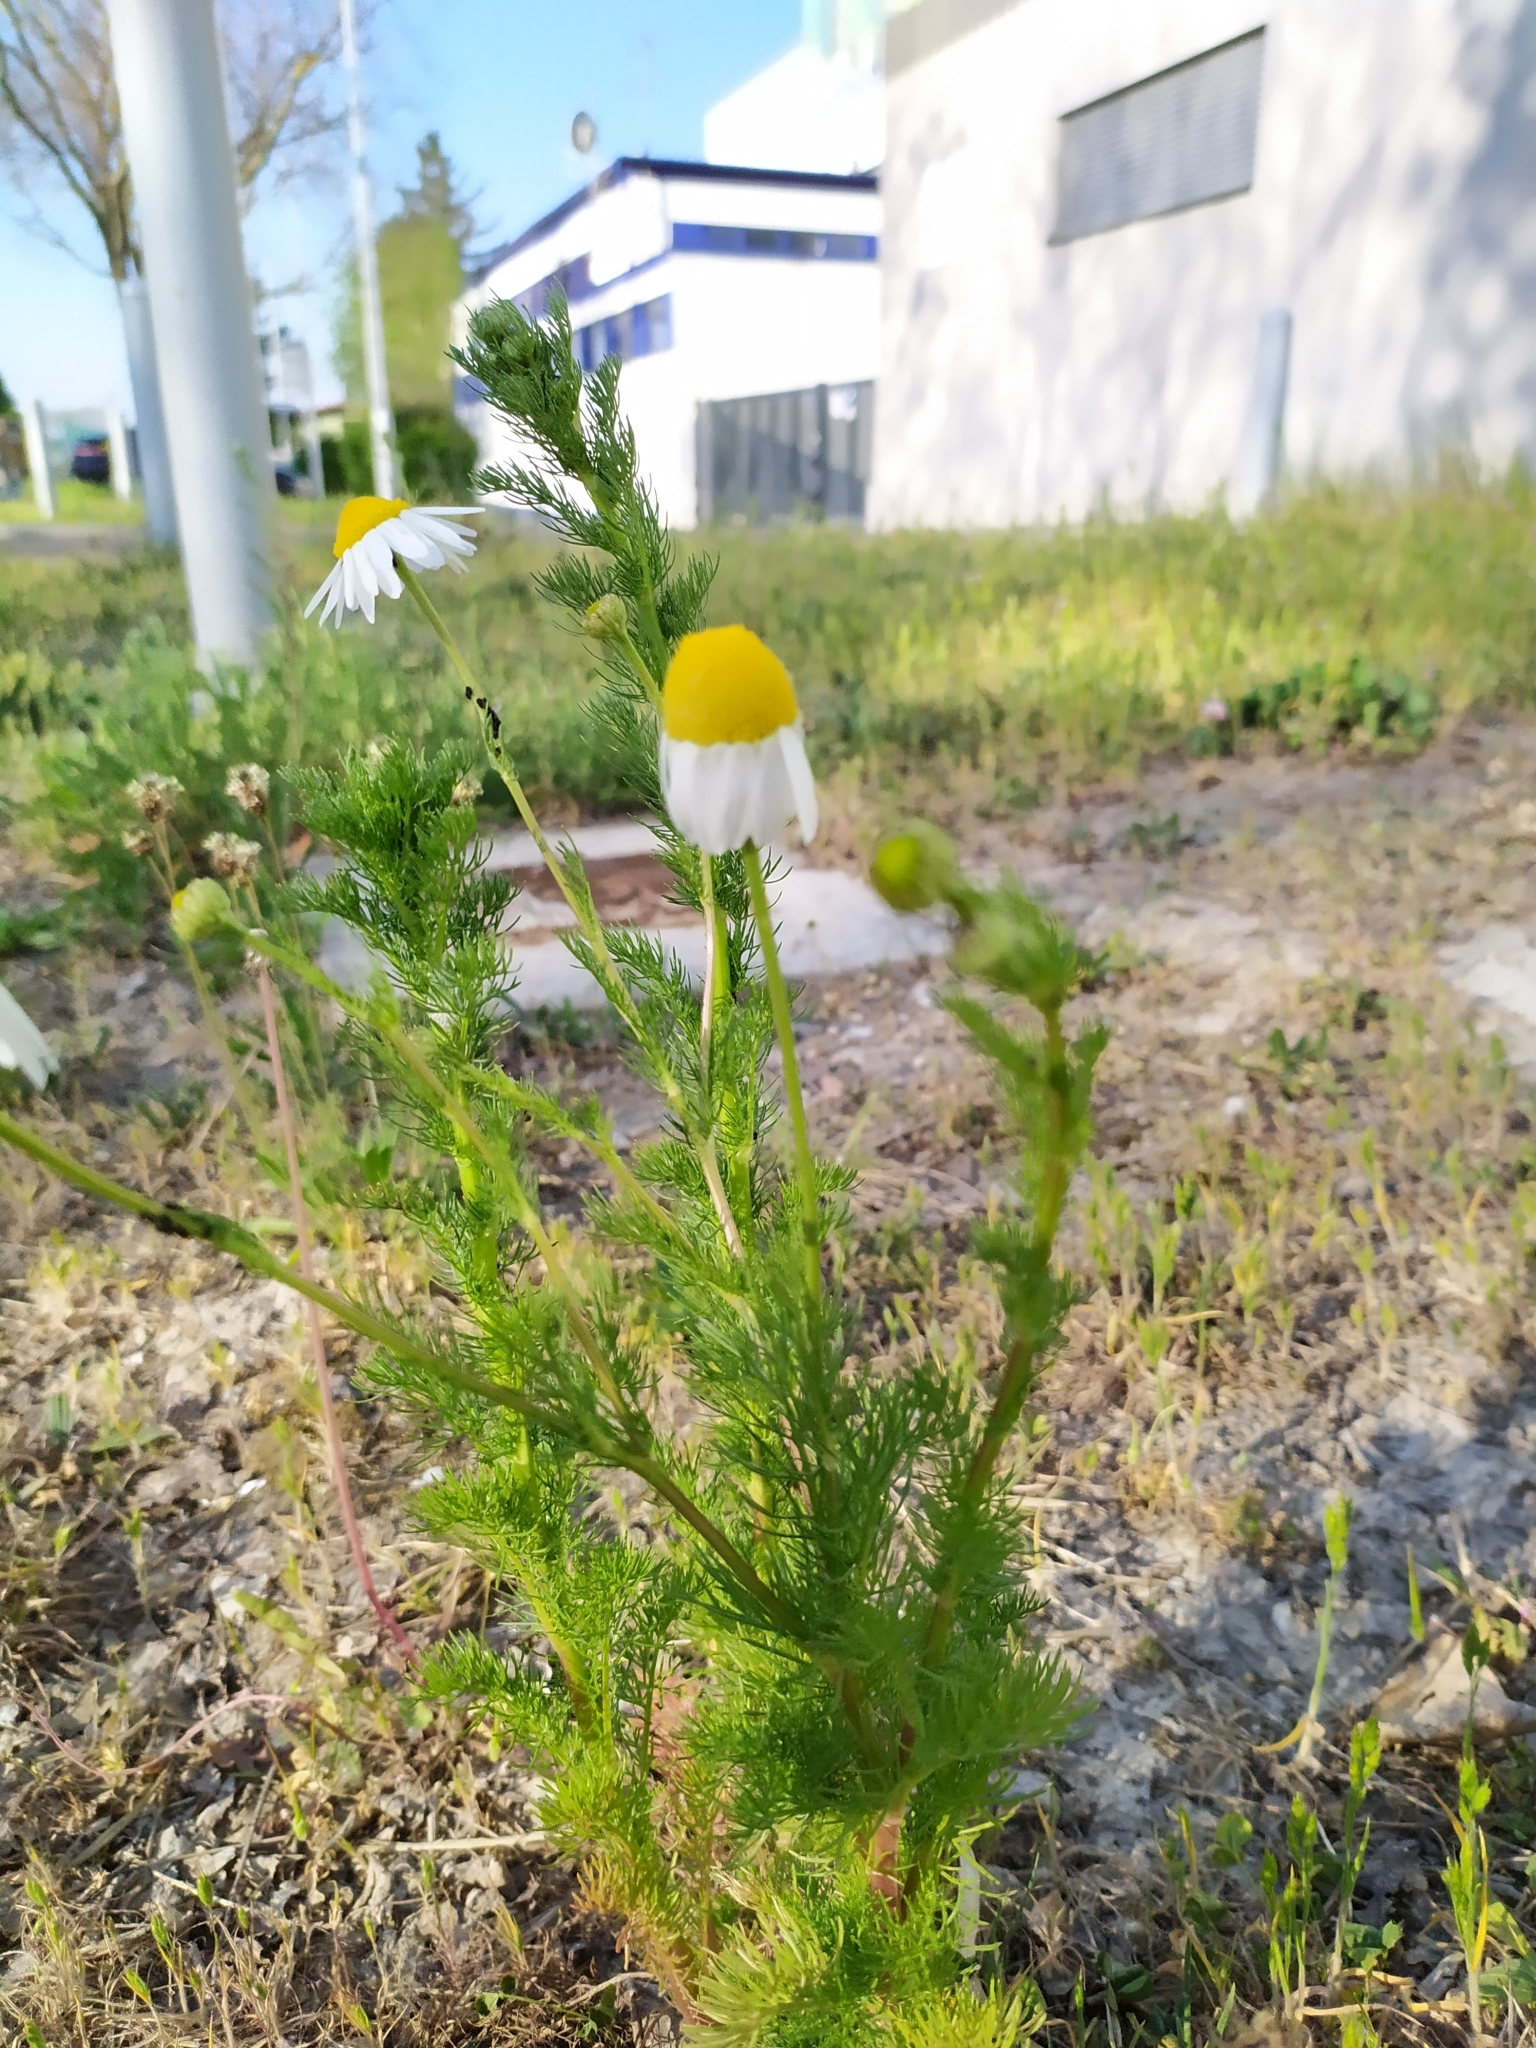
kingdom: Plantae
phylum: Tracheophyta
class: Magnoliopsida
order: Asterales
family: Asteraceae
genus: Tripleurospermum
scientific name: Tripleurospermum inodorum
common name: Scentless mayweed
